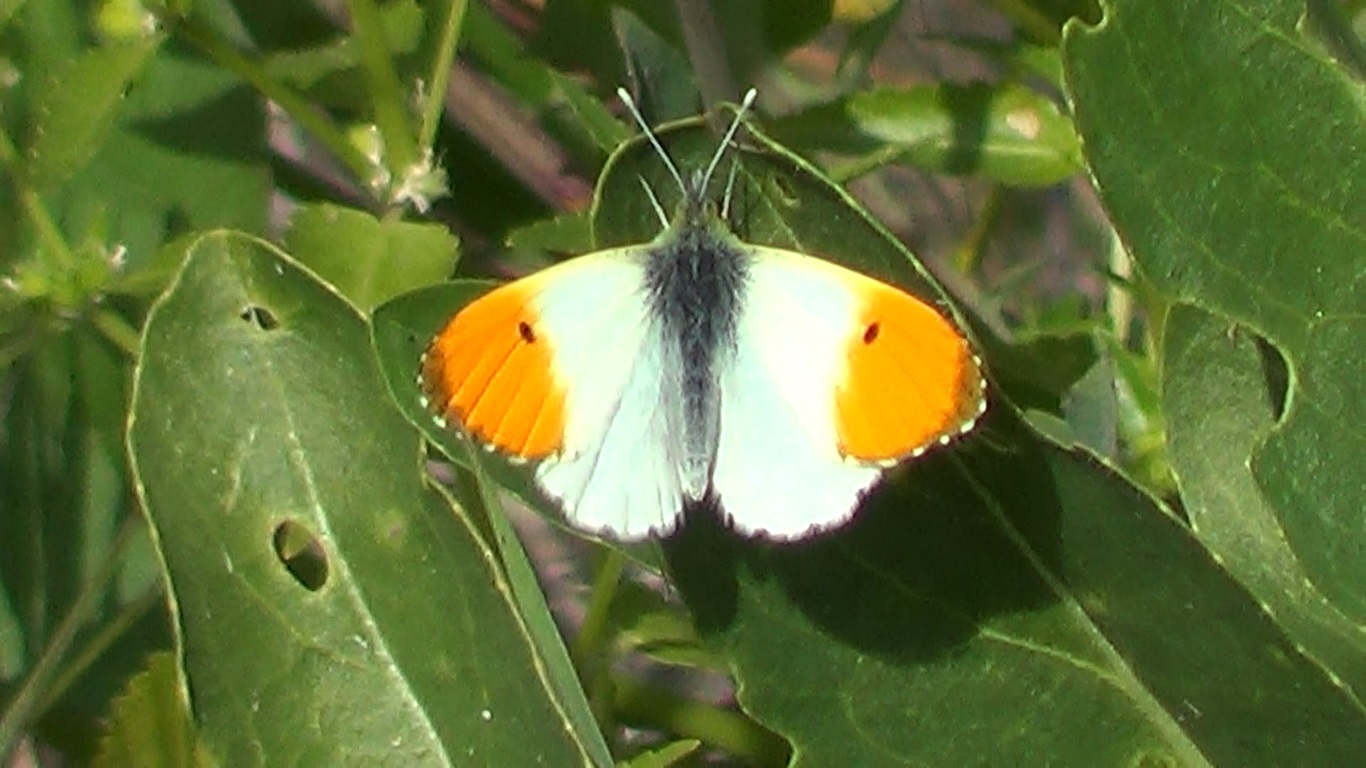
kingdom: Animalia
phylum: Arthropoda
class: Insecta
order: Lepidoptera
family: Pieridae
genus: Anthocharis
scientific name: Anthocharis cardamines
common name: Orange-tip
